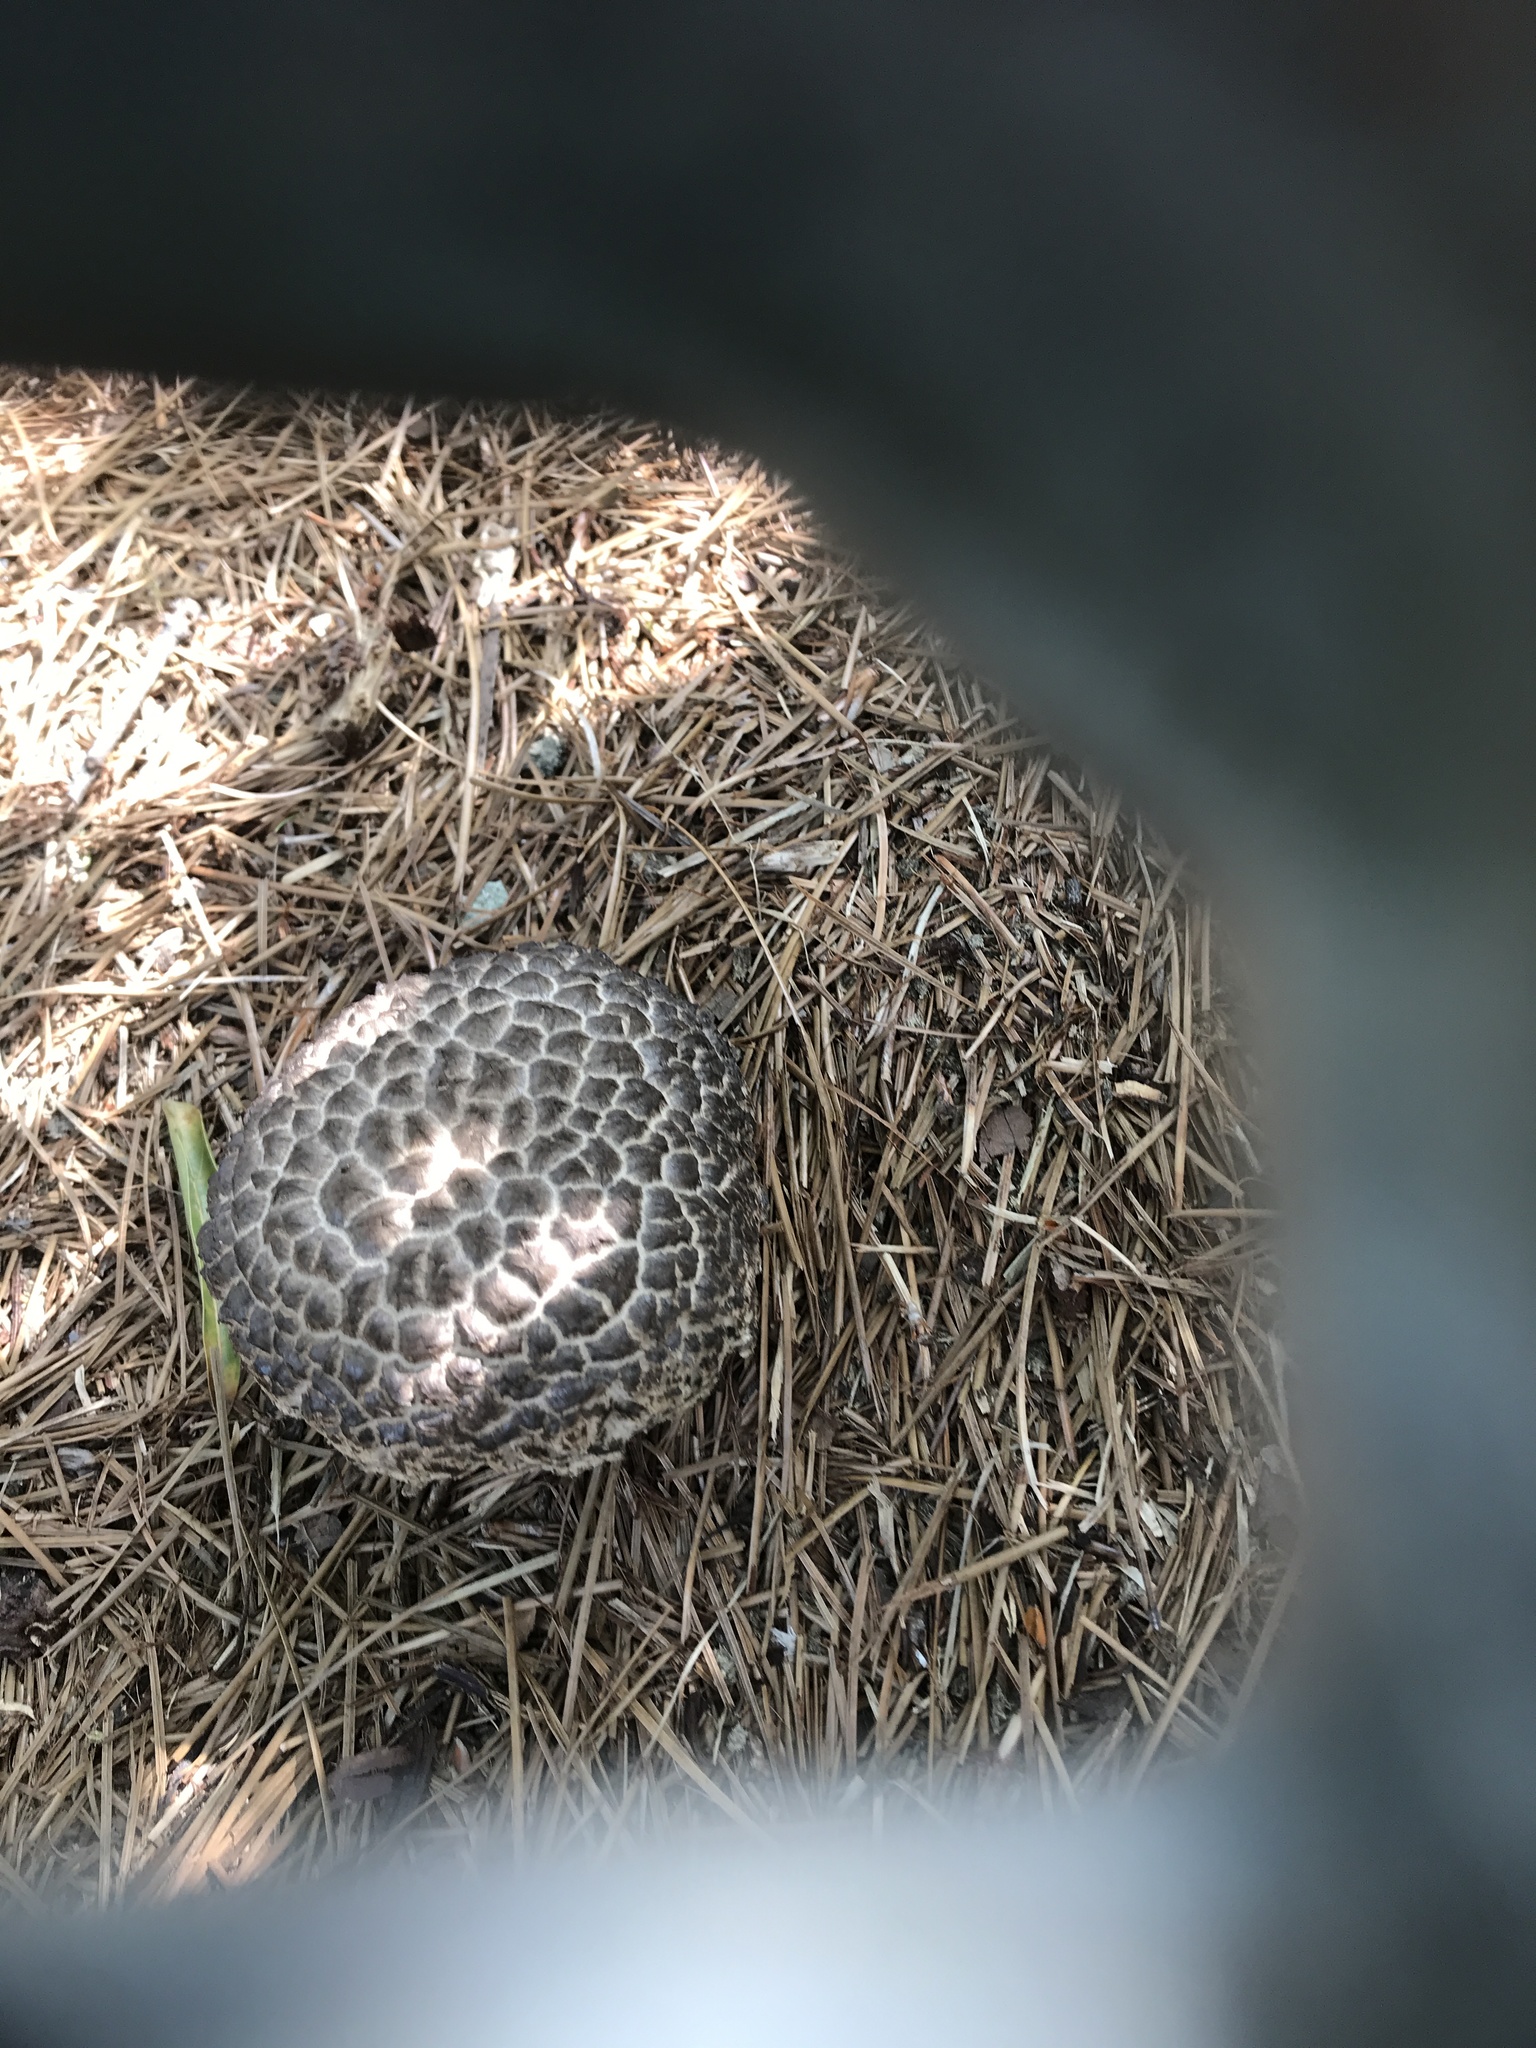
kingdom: Fungi
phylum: Basidiomycota
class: Agaricomycetes
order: Boletales
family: Boletaceae
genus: Strobilomyces
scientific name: Strobilomyces strobilaceus
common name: Old man of the woods
